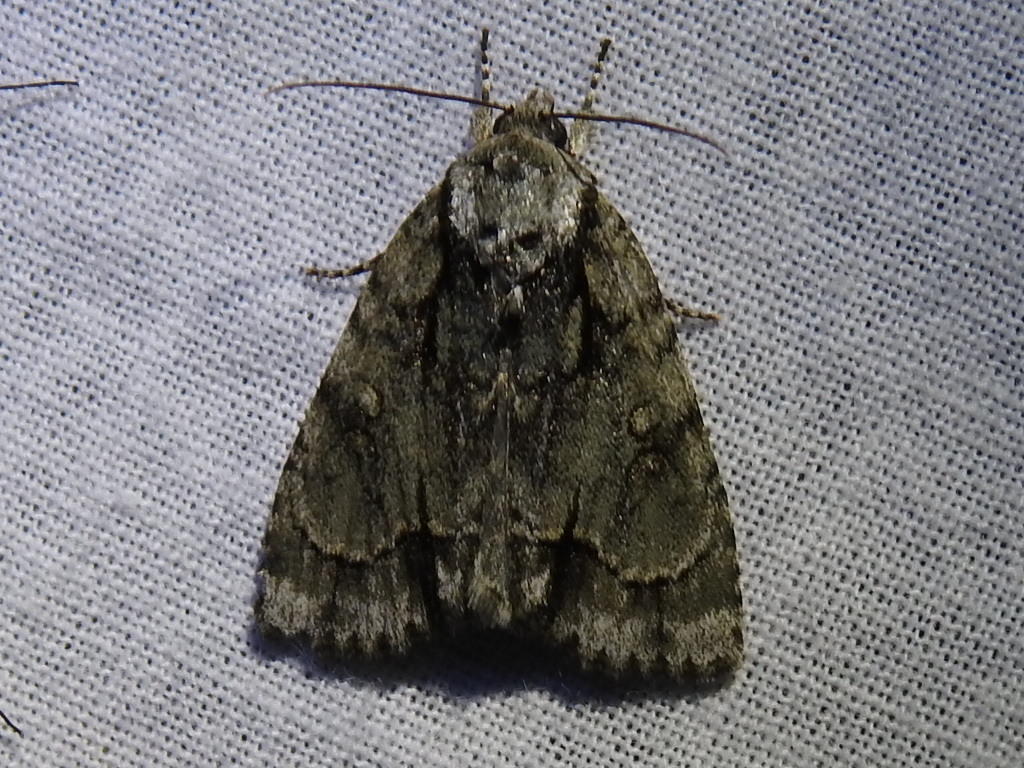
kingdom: Animalia
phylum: Arthropoda
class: Insecta
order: Lepidoptera
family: Noctuidae
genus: Acronicta
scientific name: Acronicta vinnula
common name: Delightful dagger
